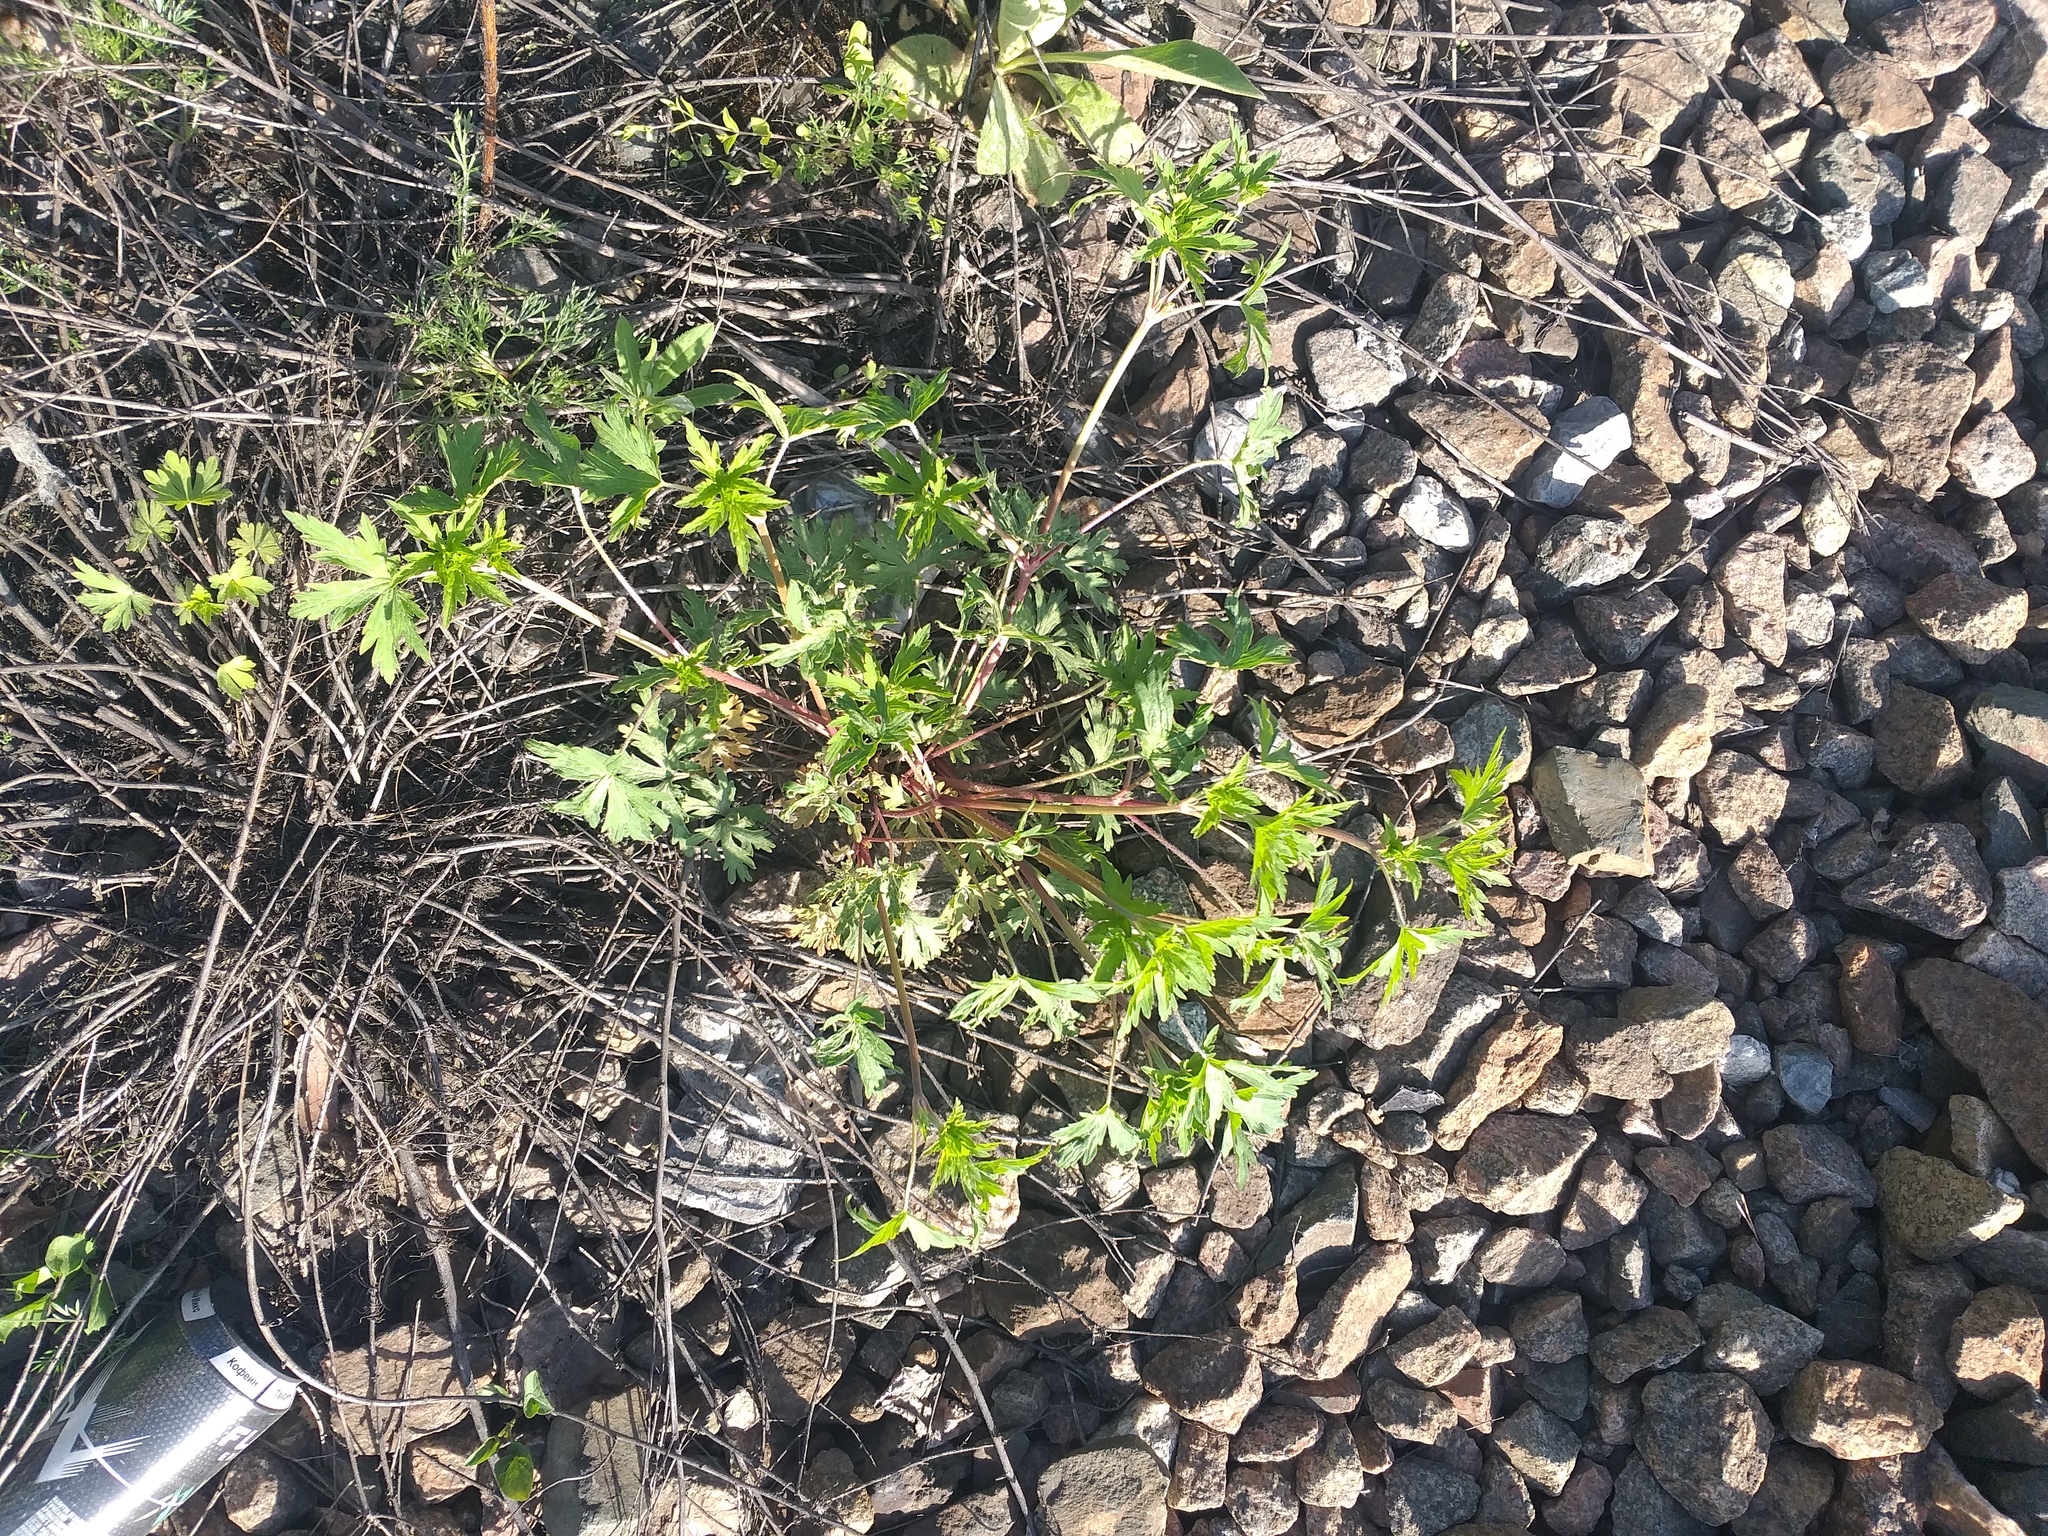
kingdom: Plantae
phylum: Tracheophyta
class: Magnoliopsida
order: Geraniales
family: Geraniaceae
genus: Geranium
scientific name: Geranium sibiricum
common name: Siberian crane's-bill
